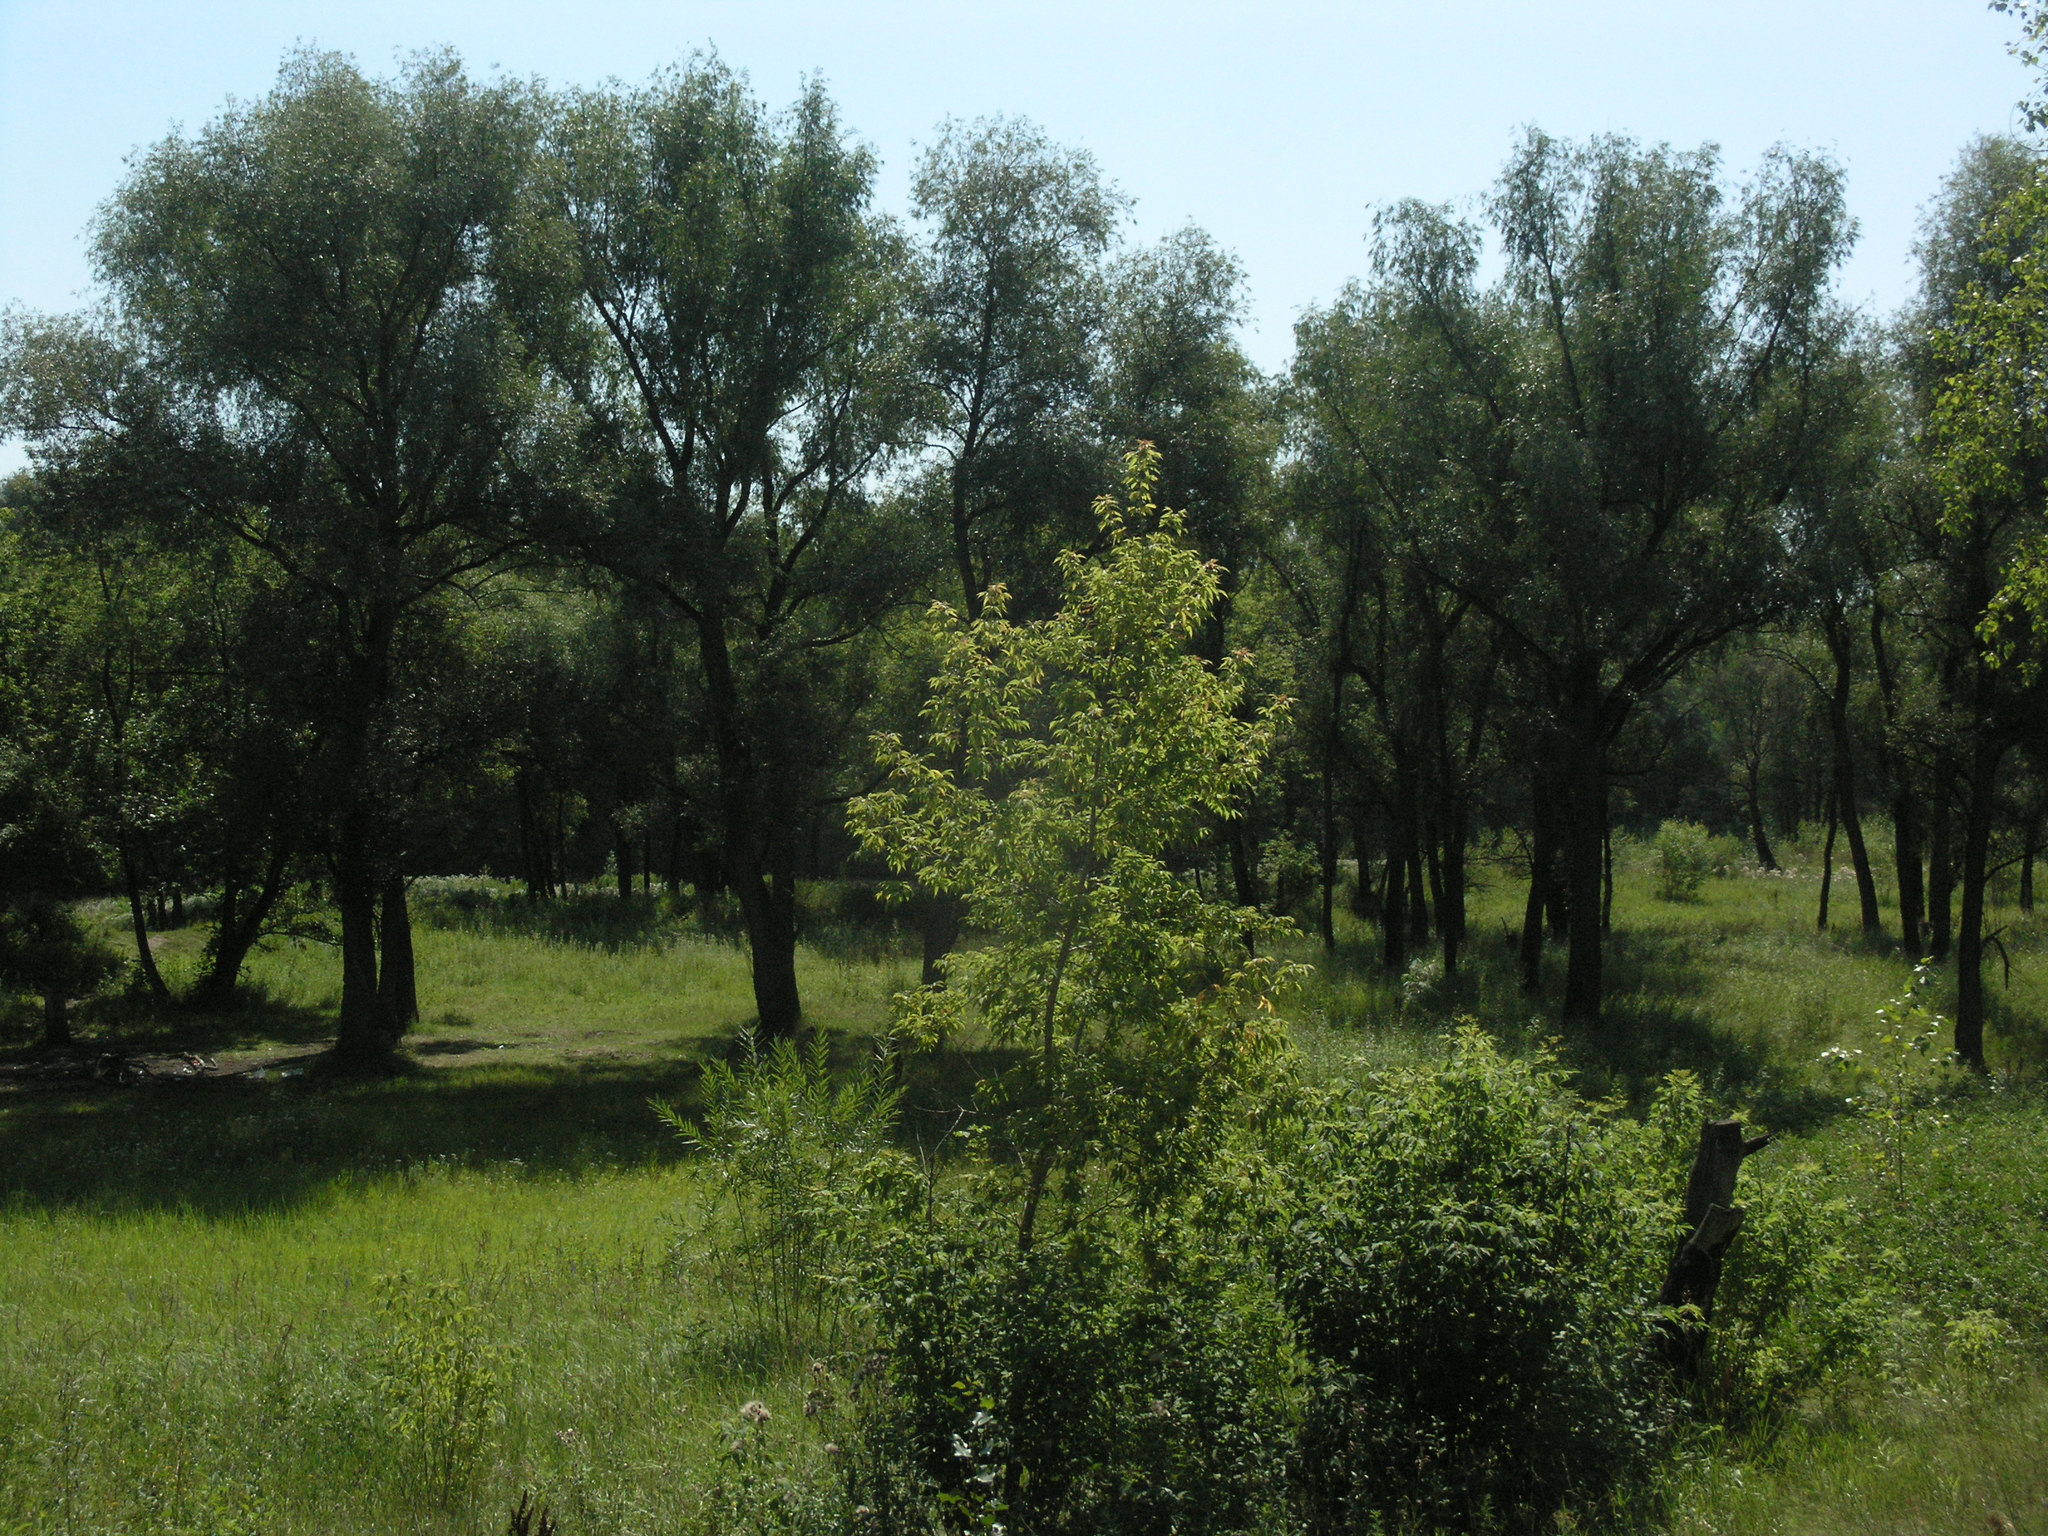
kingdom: Plantae
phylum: Tracheophyta
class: Magnoliopsida
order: Malpighiales
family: Salicaceae
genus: Salix
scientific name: Salix alba
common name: White willow
